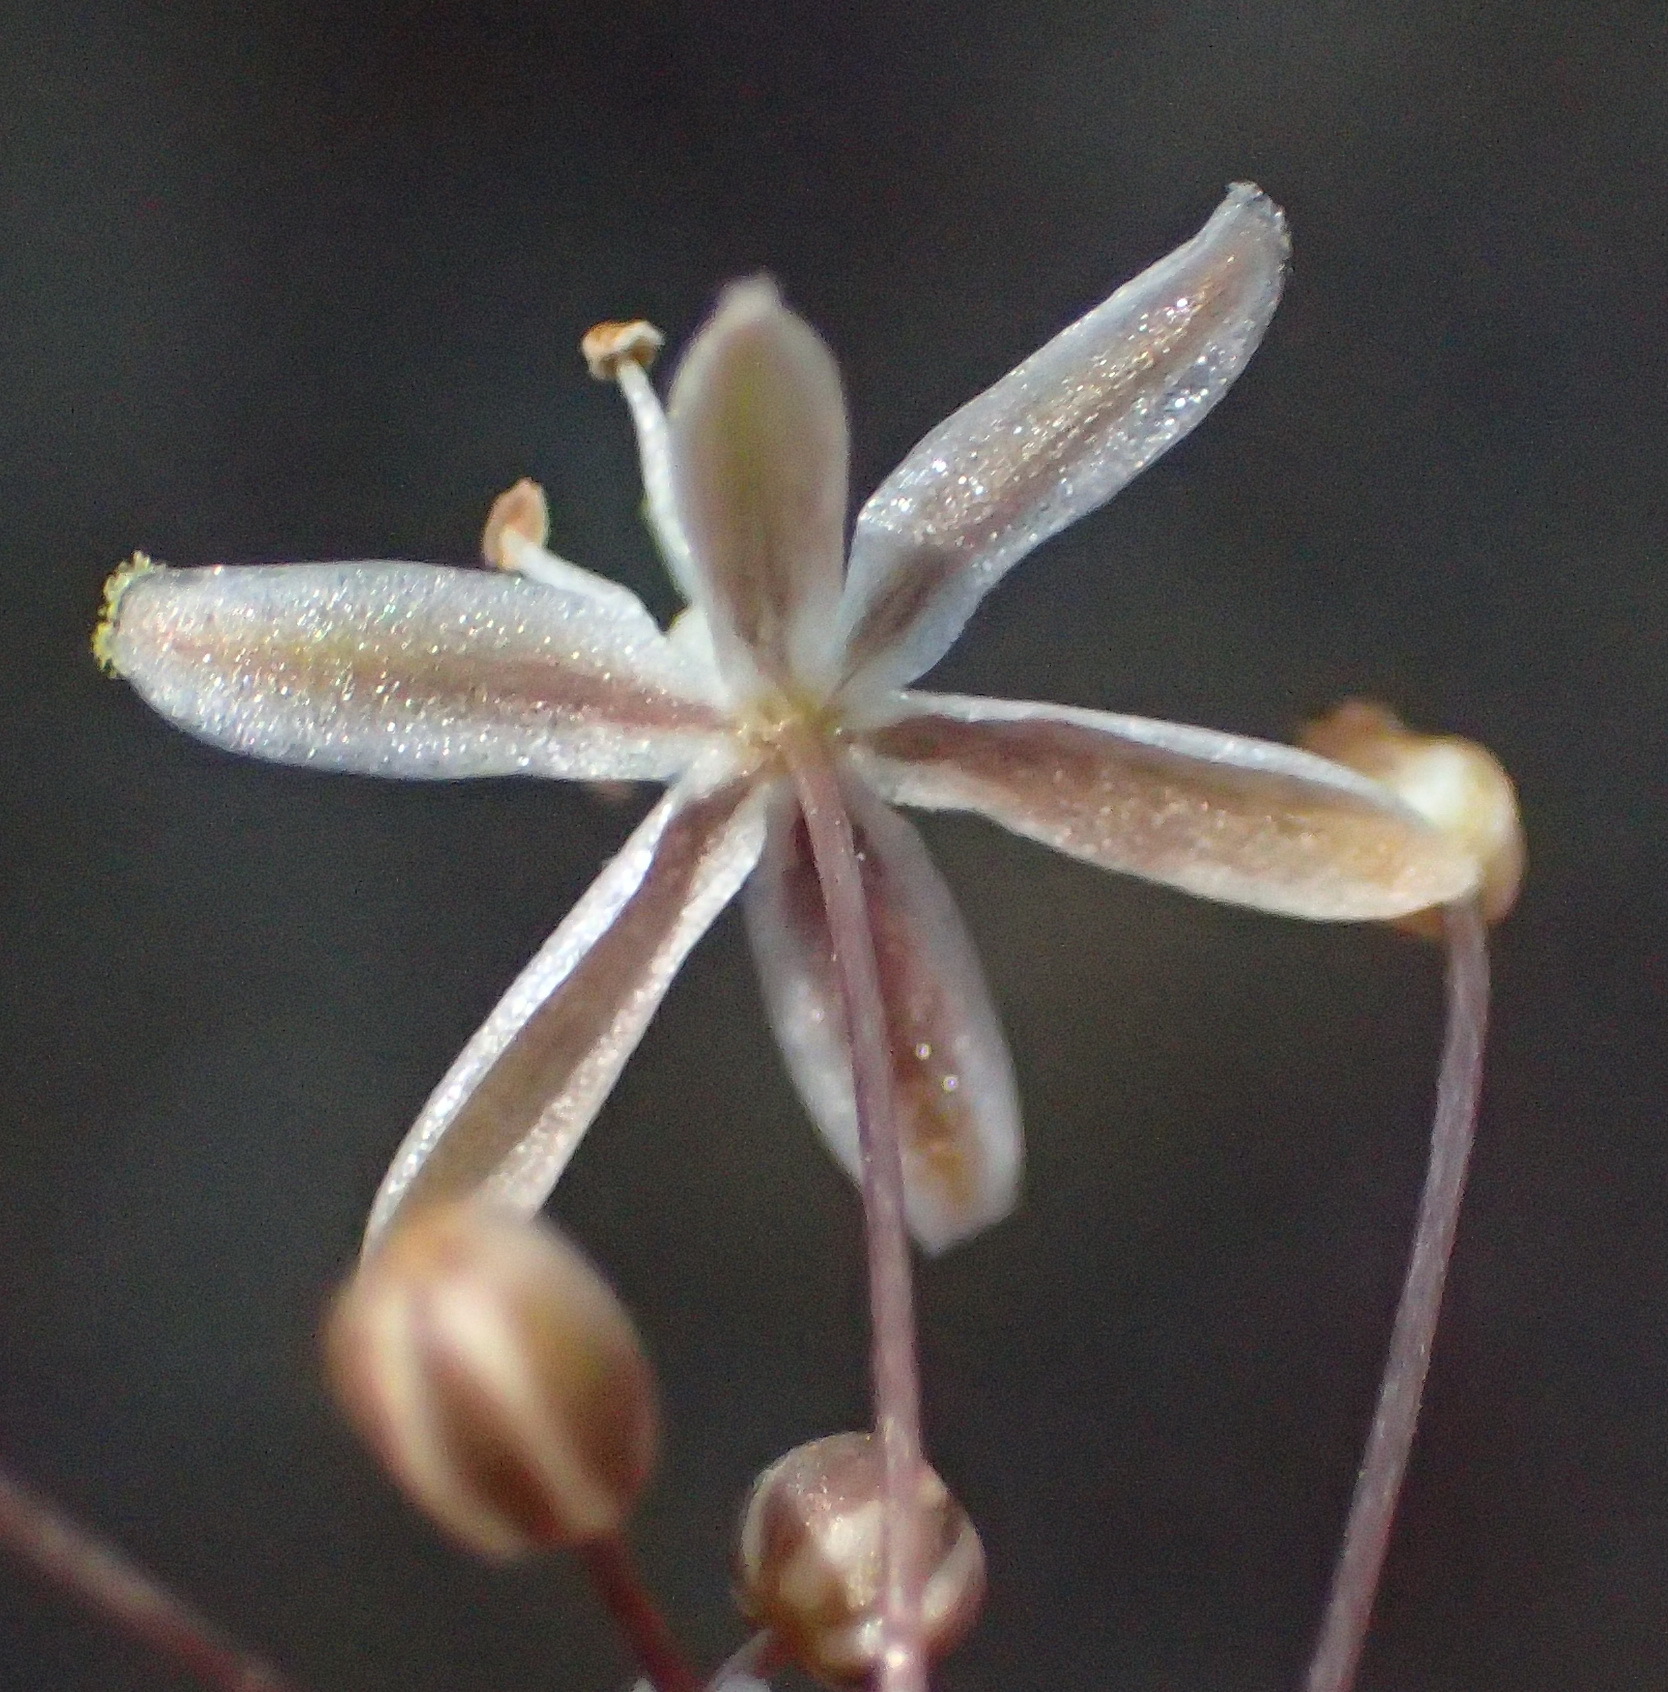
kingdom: Plantae
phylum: Tracheophyta
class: Liliopsida
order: Asparagales
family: Asparagaceae
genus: Fusifilum
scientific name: Fusifilum physodes
